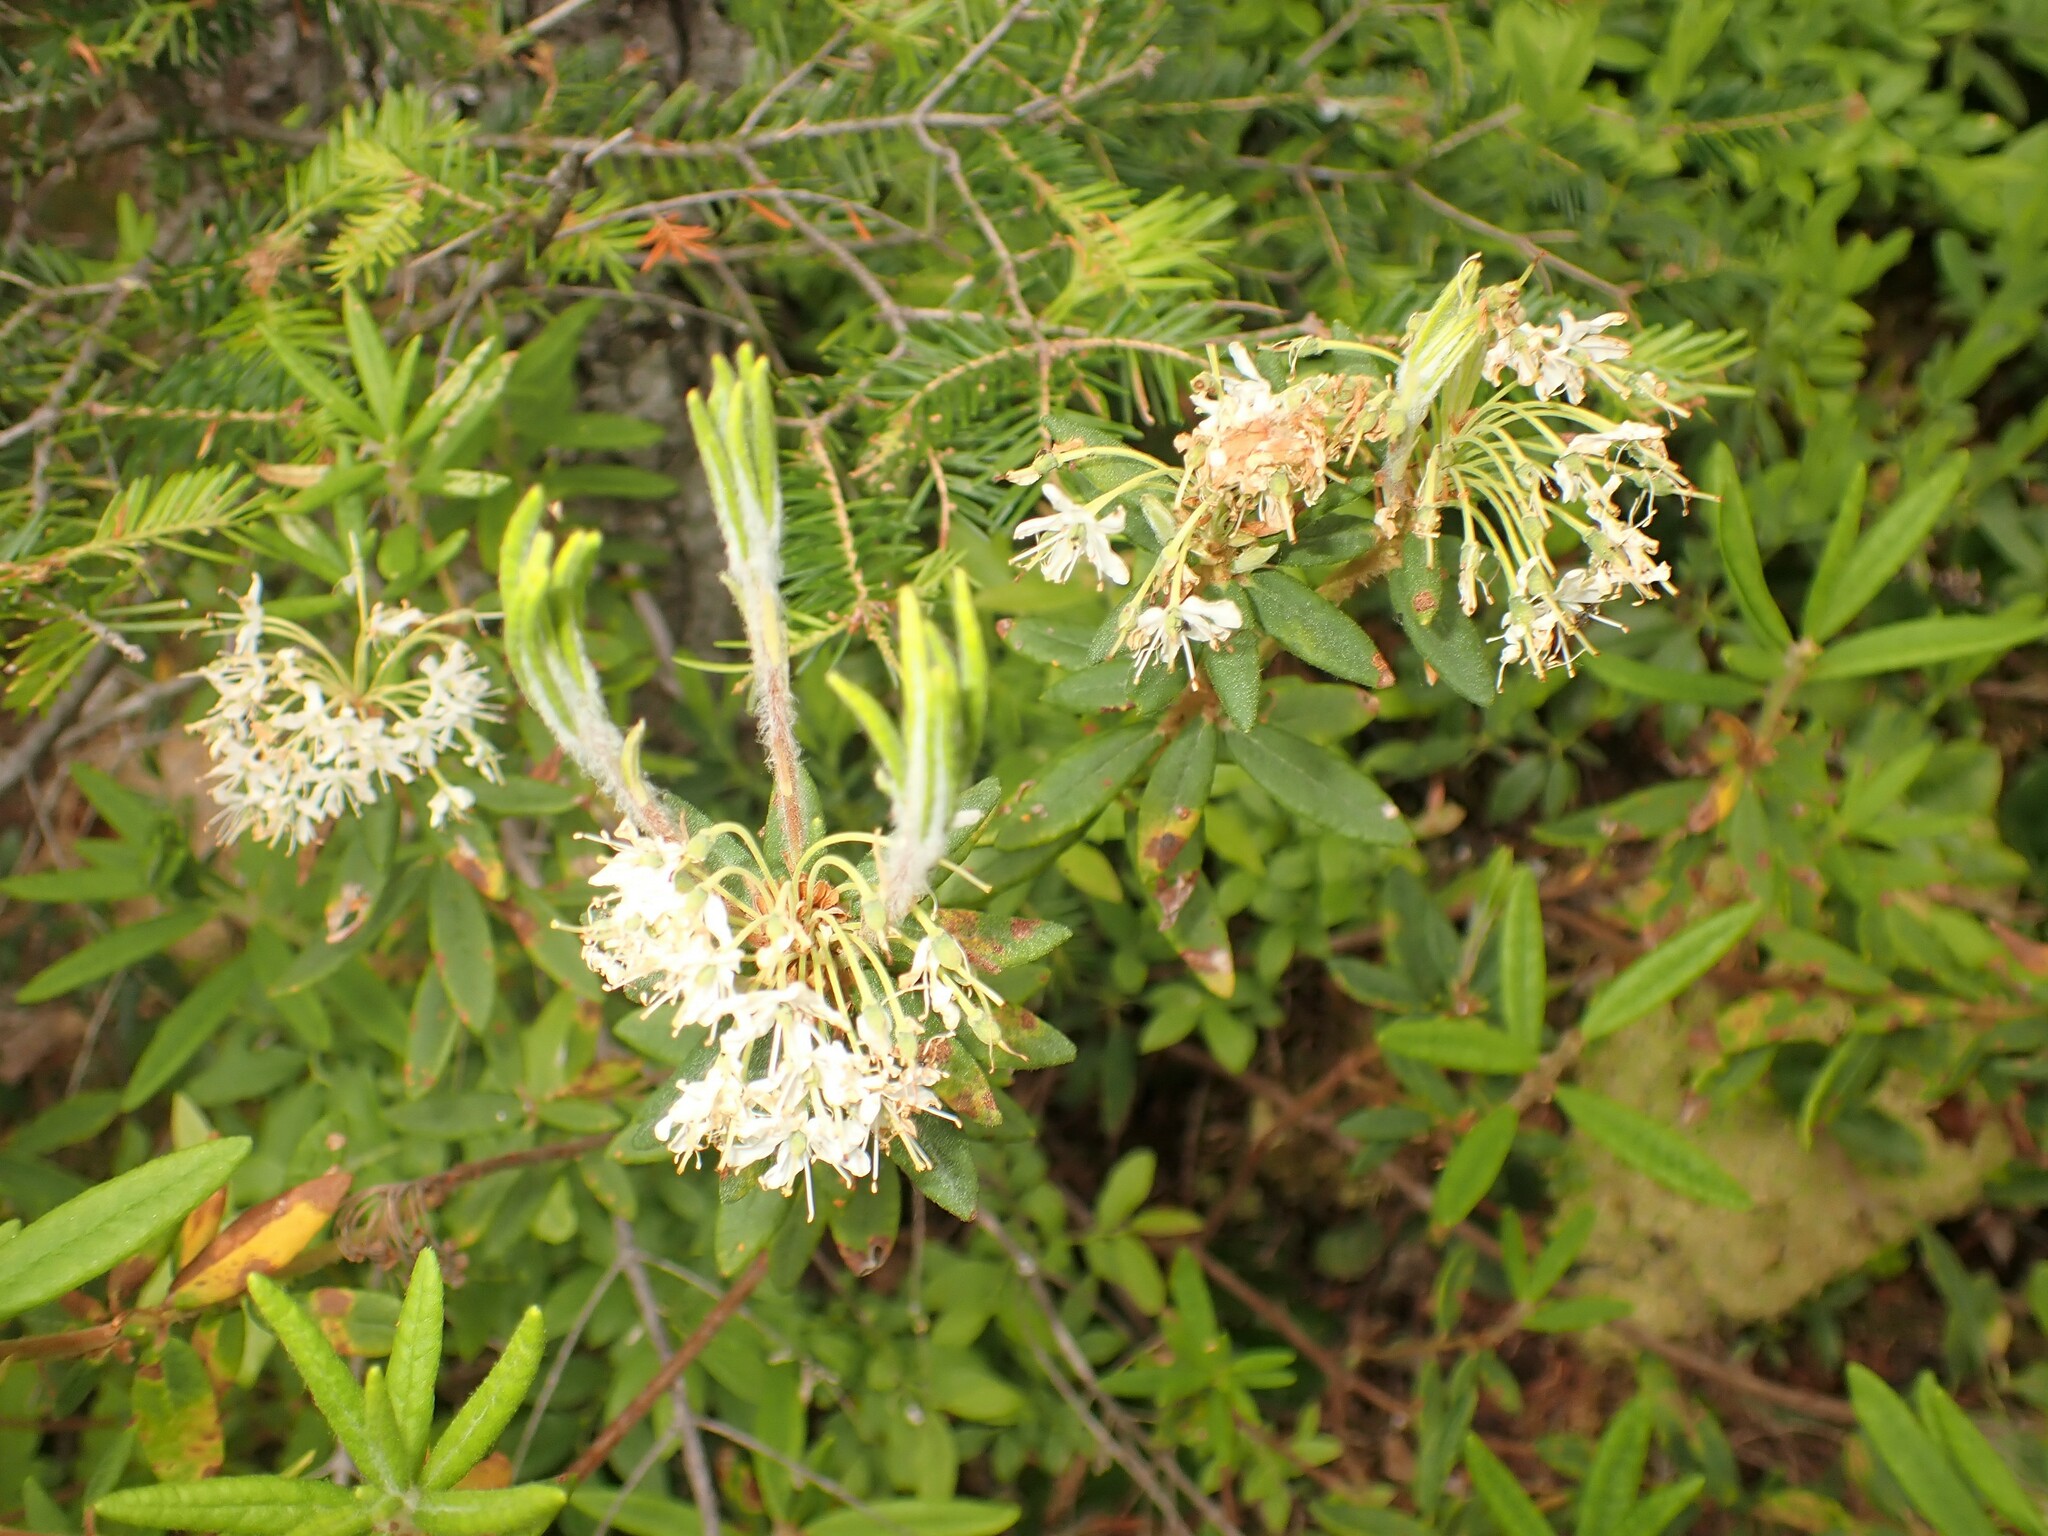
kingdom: Plantae
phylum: Tracheophyta
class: Magnoliopsida
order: Ericales
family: Ericaceae
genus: Rhododendron
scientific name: Rhododendron groenlandicum
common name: Bog labrador tea
